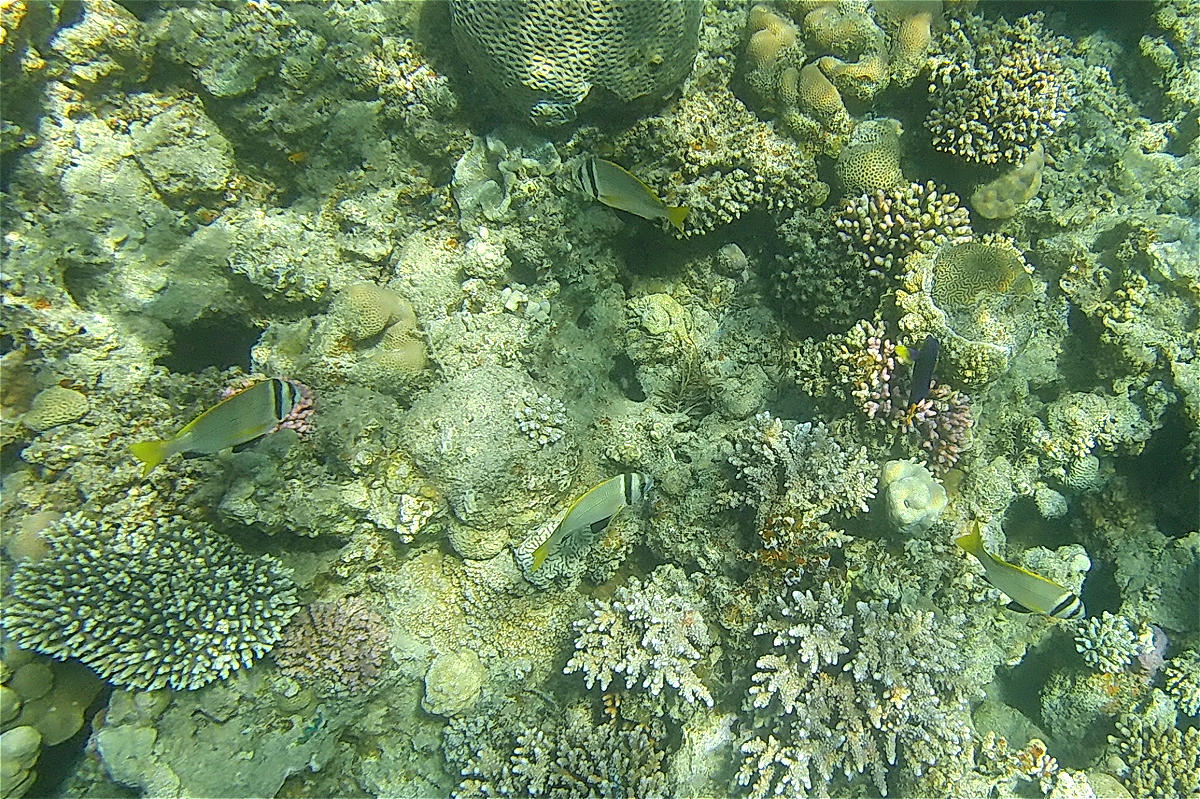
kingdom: Animalia
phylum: Chordata
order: Perciformes
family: Sparidae
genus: Acanthopagrus
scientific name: Acanthopagrus bifasciatus
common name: Twobar seabream
